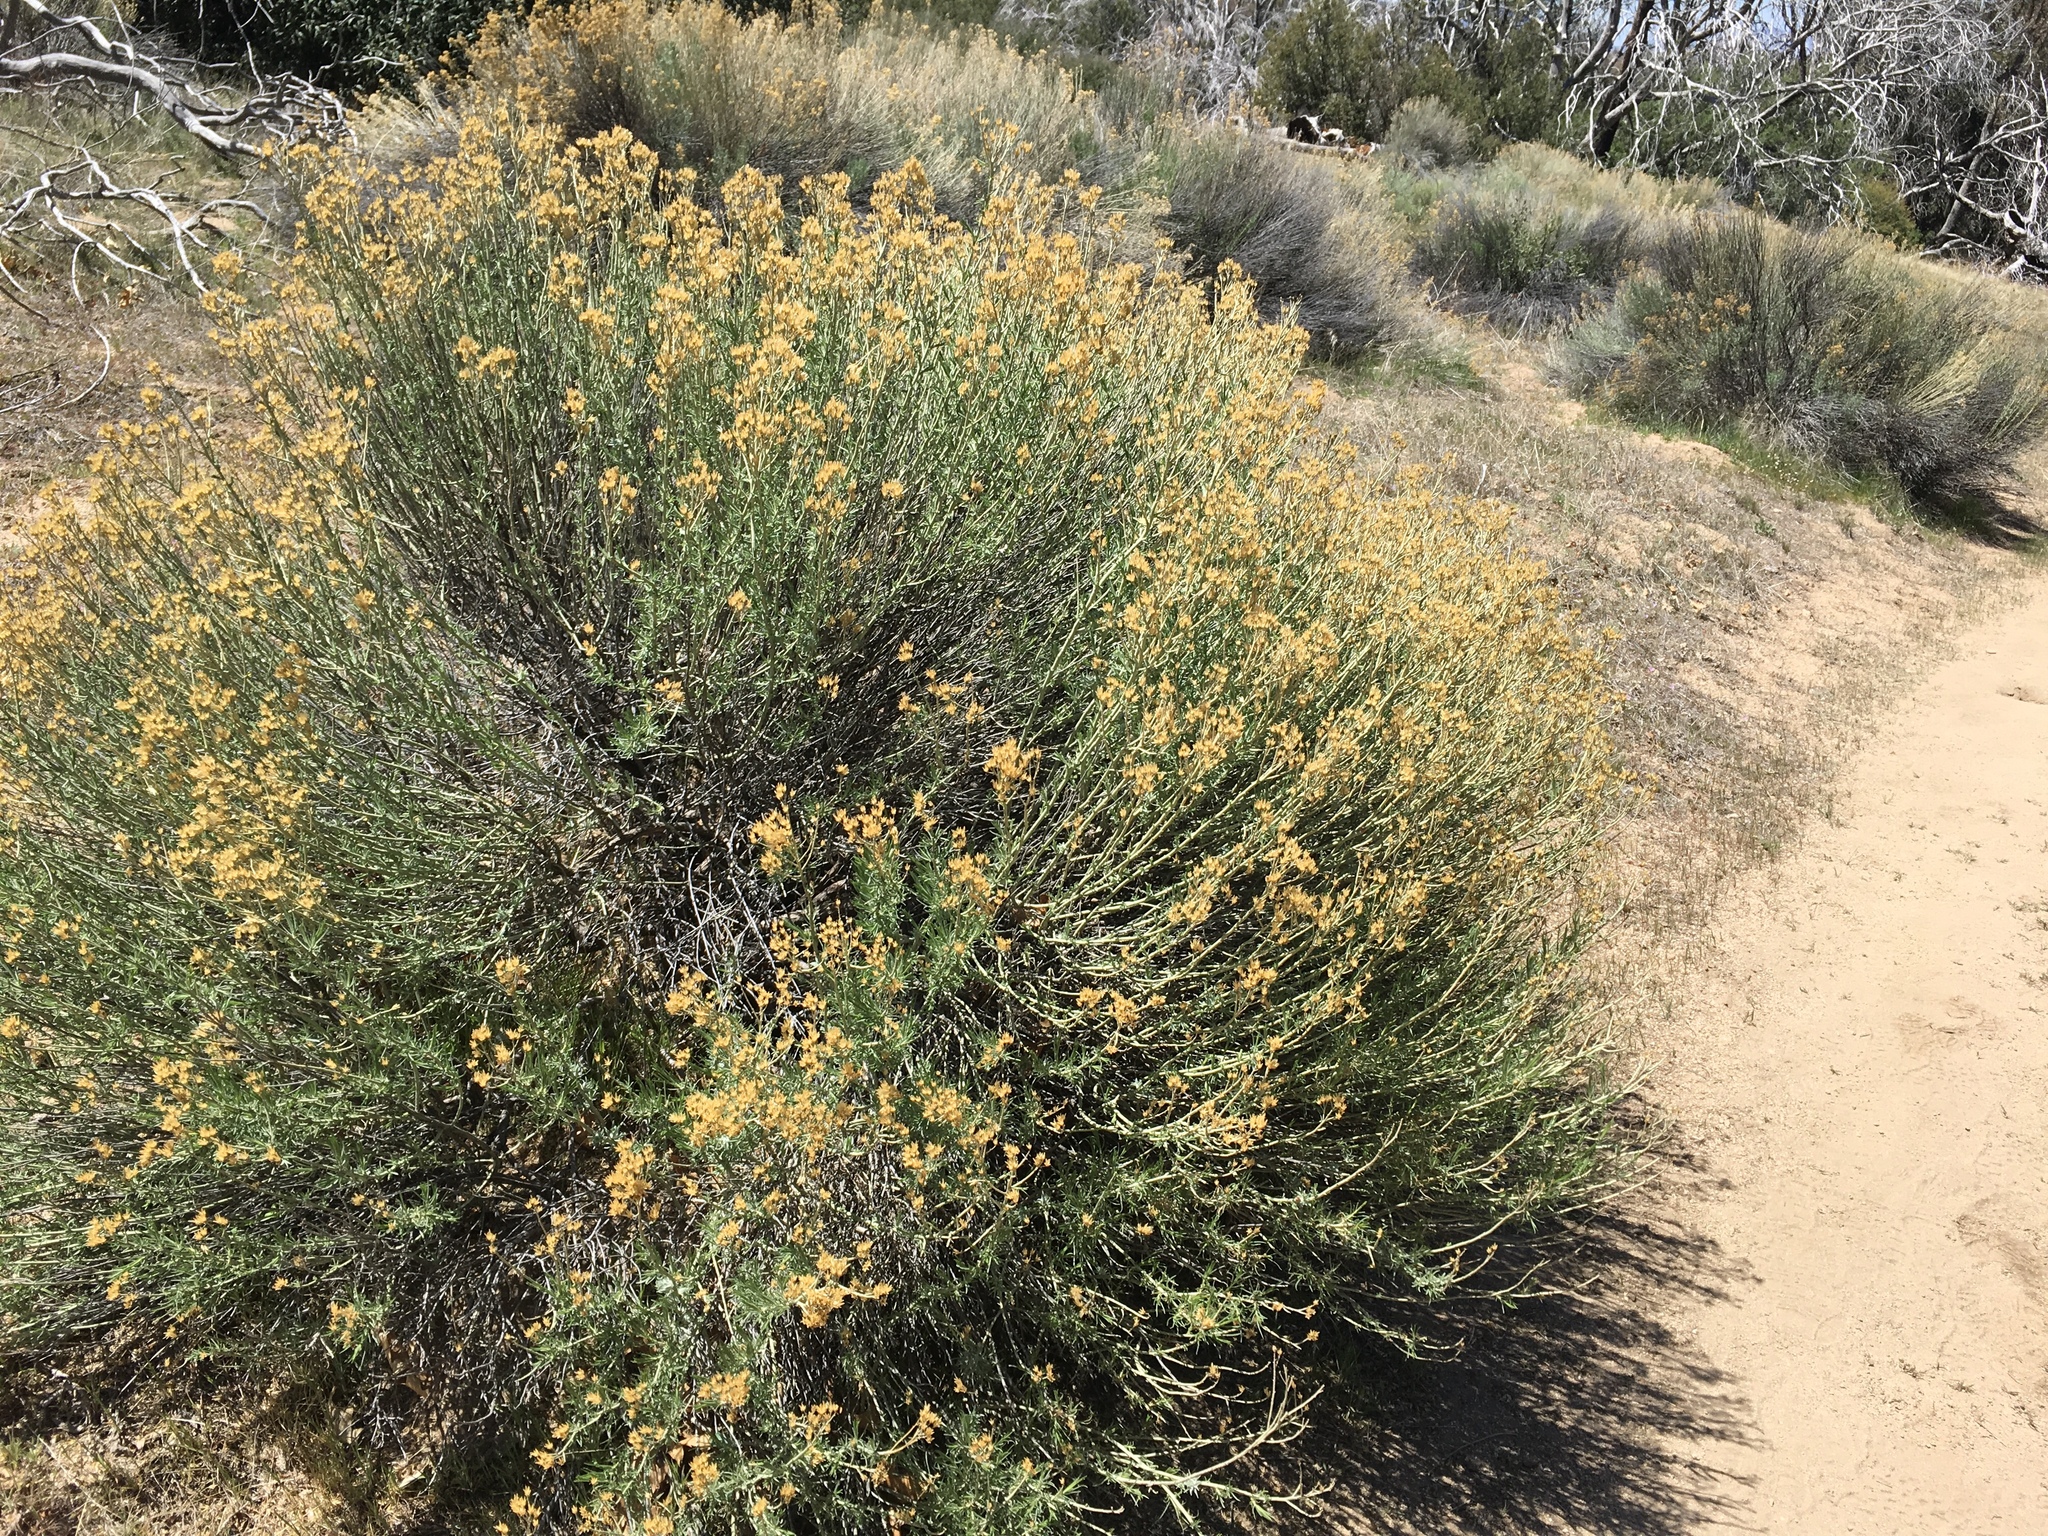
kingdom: Plantae
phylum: Tracheophyta
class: Magnoliopsida
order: Asterales
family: Asteraceae
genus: Ericameria
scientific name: Ericameria nauseosa
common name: Rubber rabbitbrush
